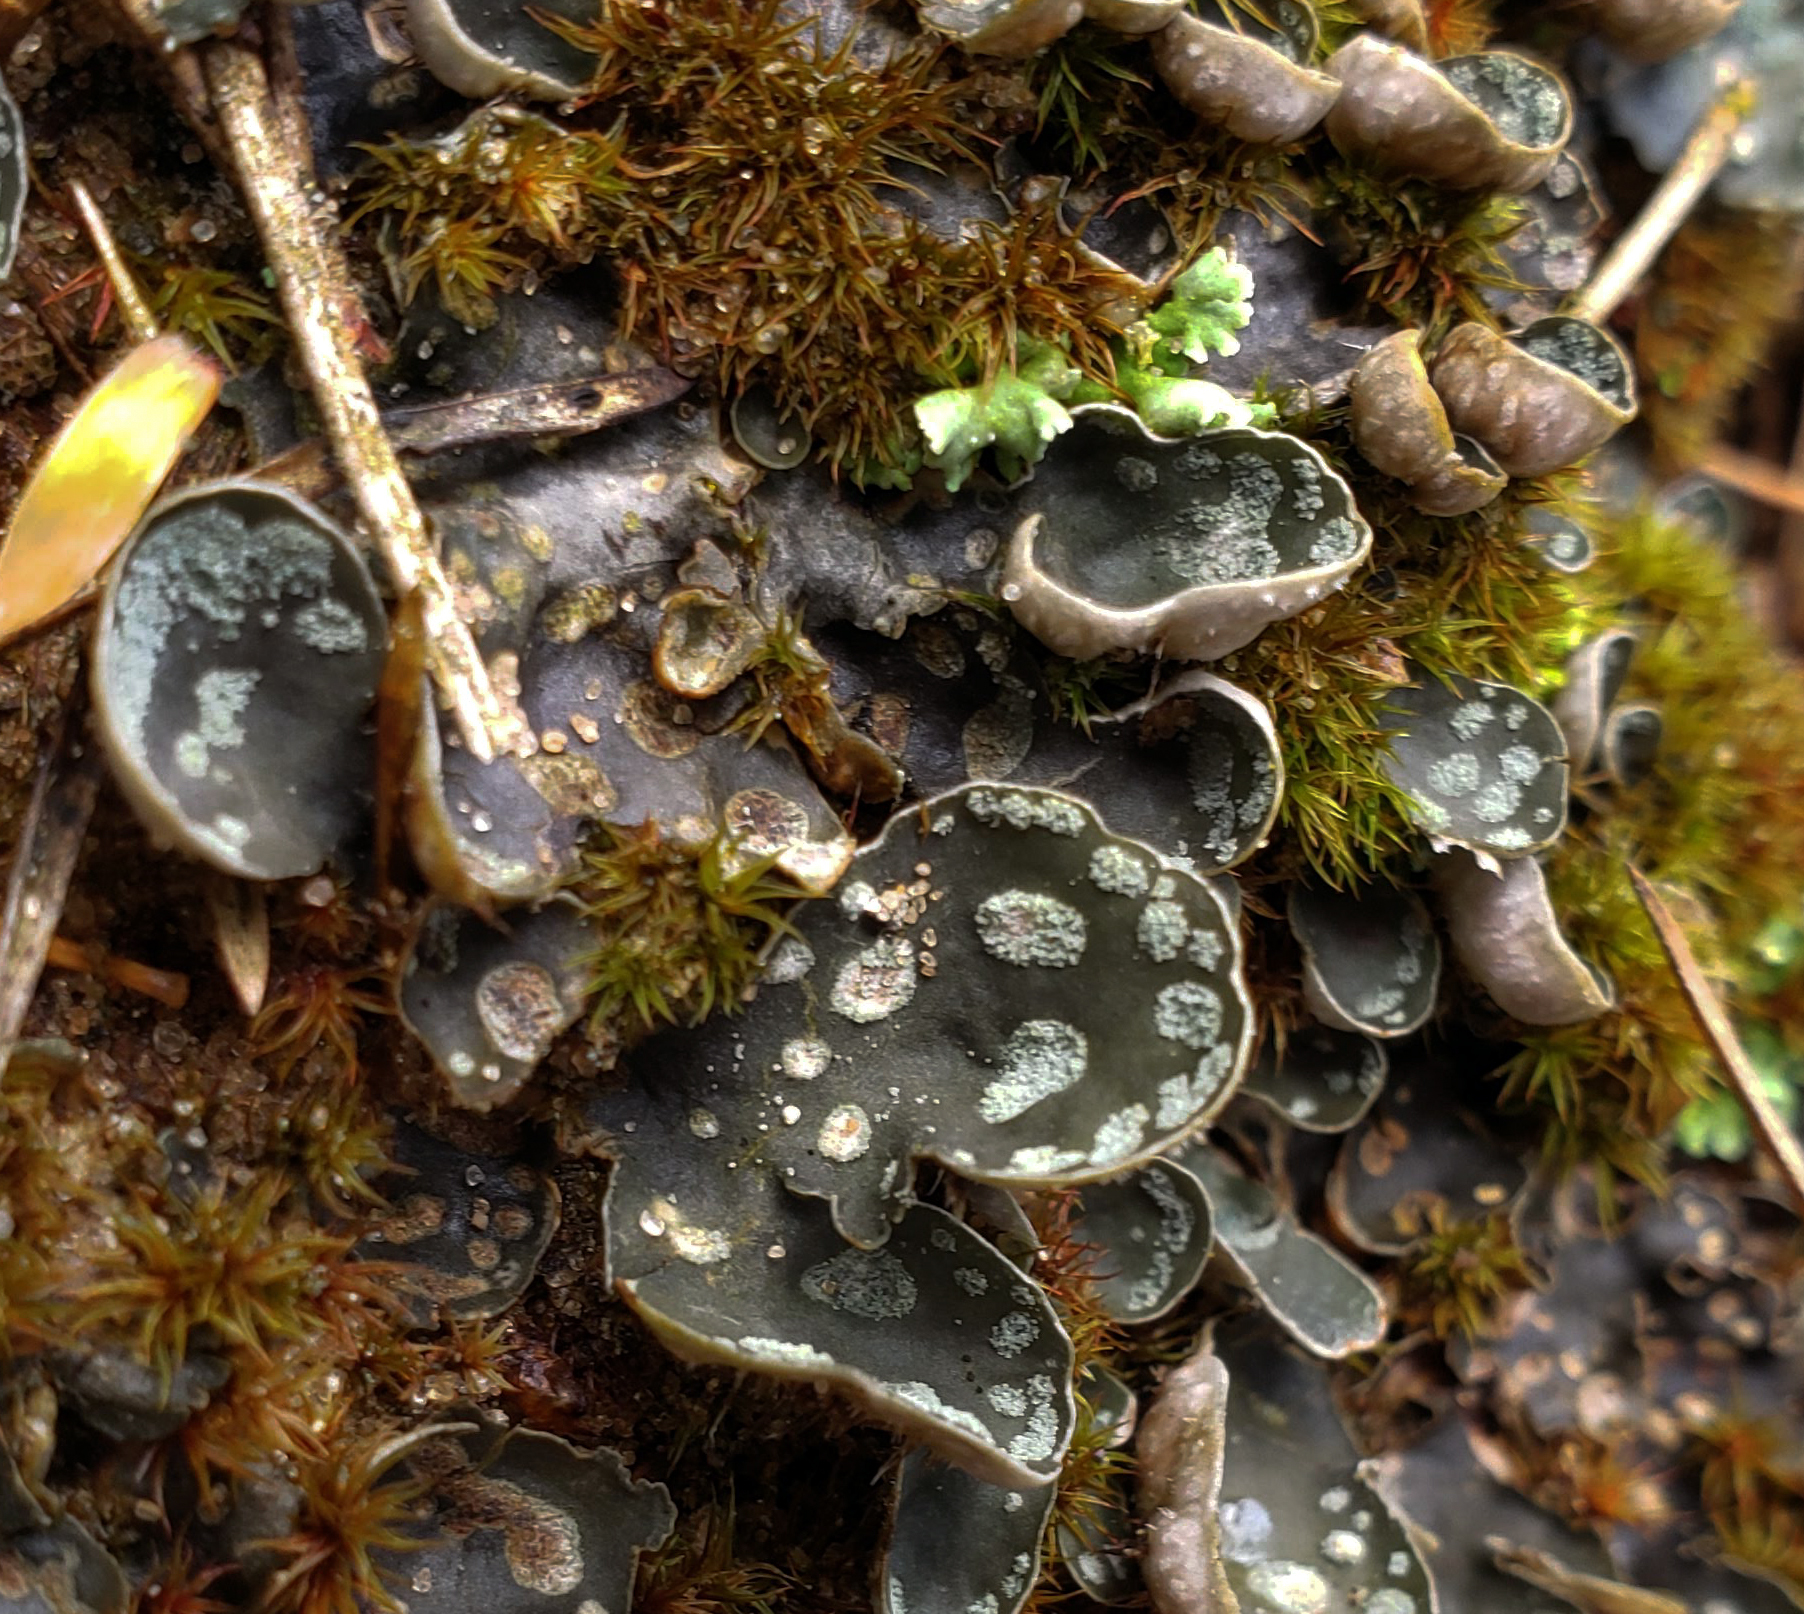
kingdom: Fungi
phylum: Ascomycota
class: Lecanoromycetes
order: Peltigerales
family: Peltigeraceae
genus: Peltigera
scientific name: Peltigera didactyla
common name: Alternating dog lichen
